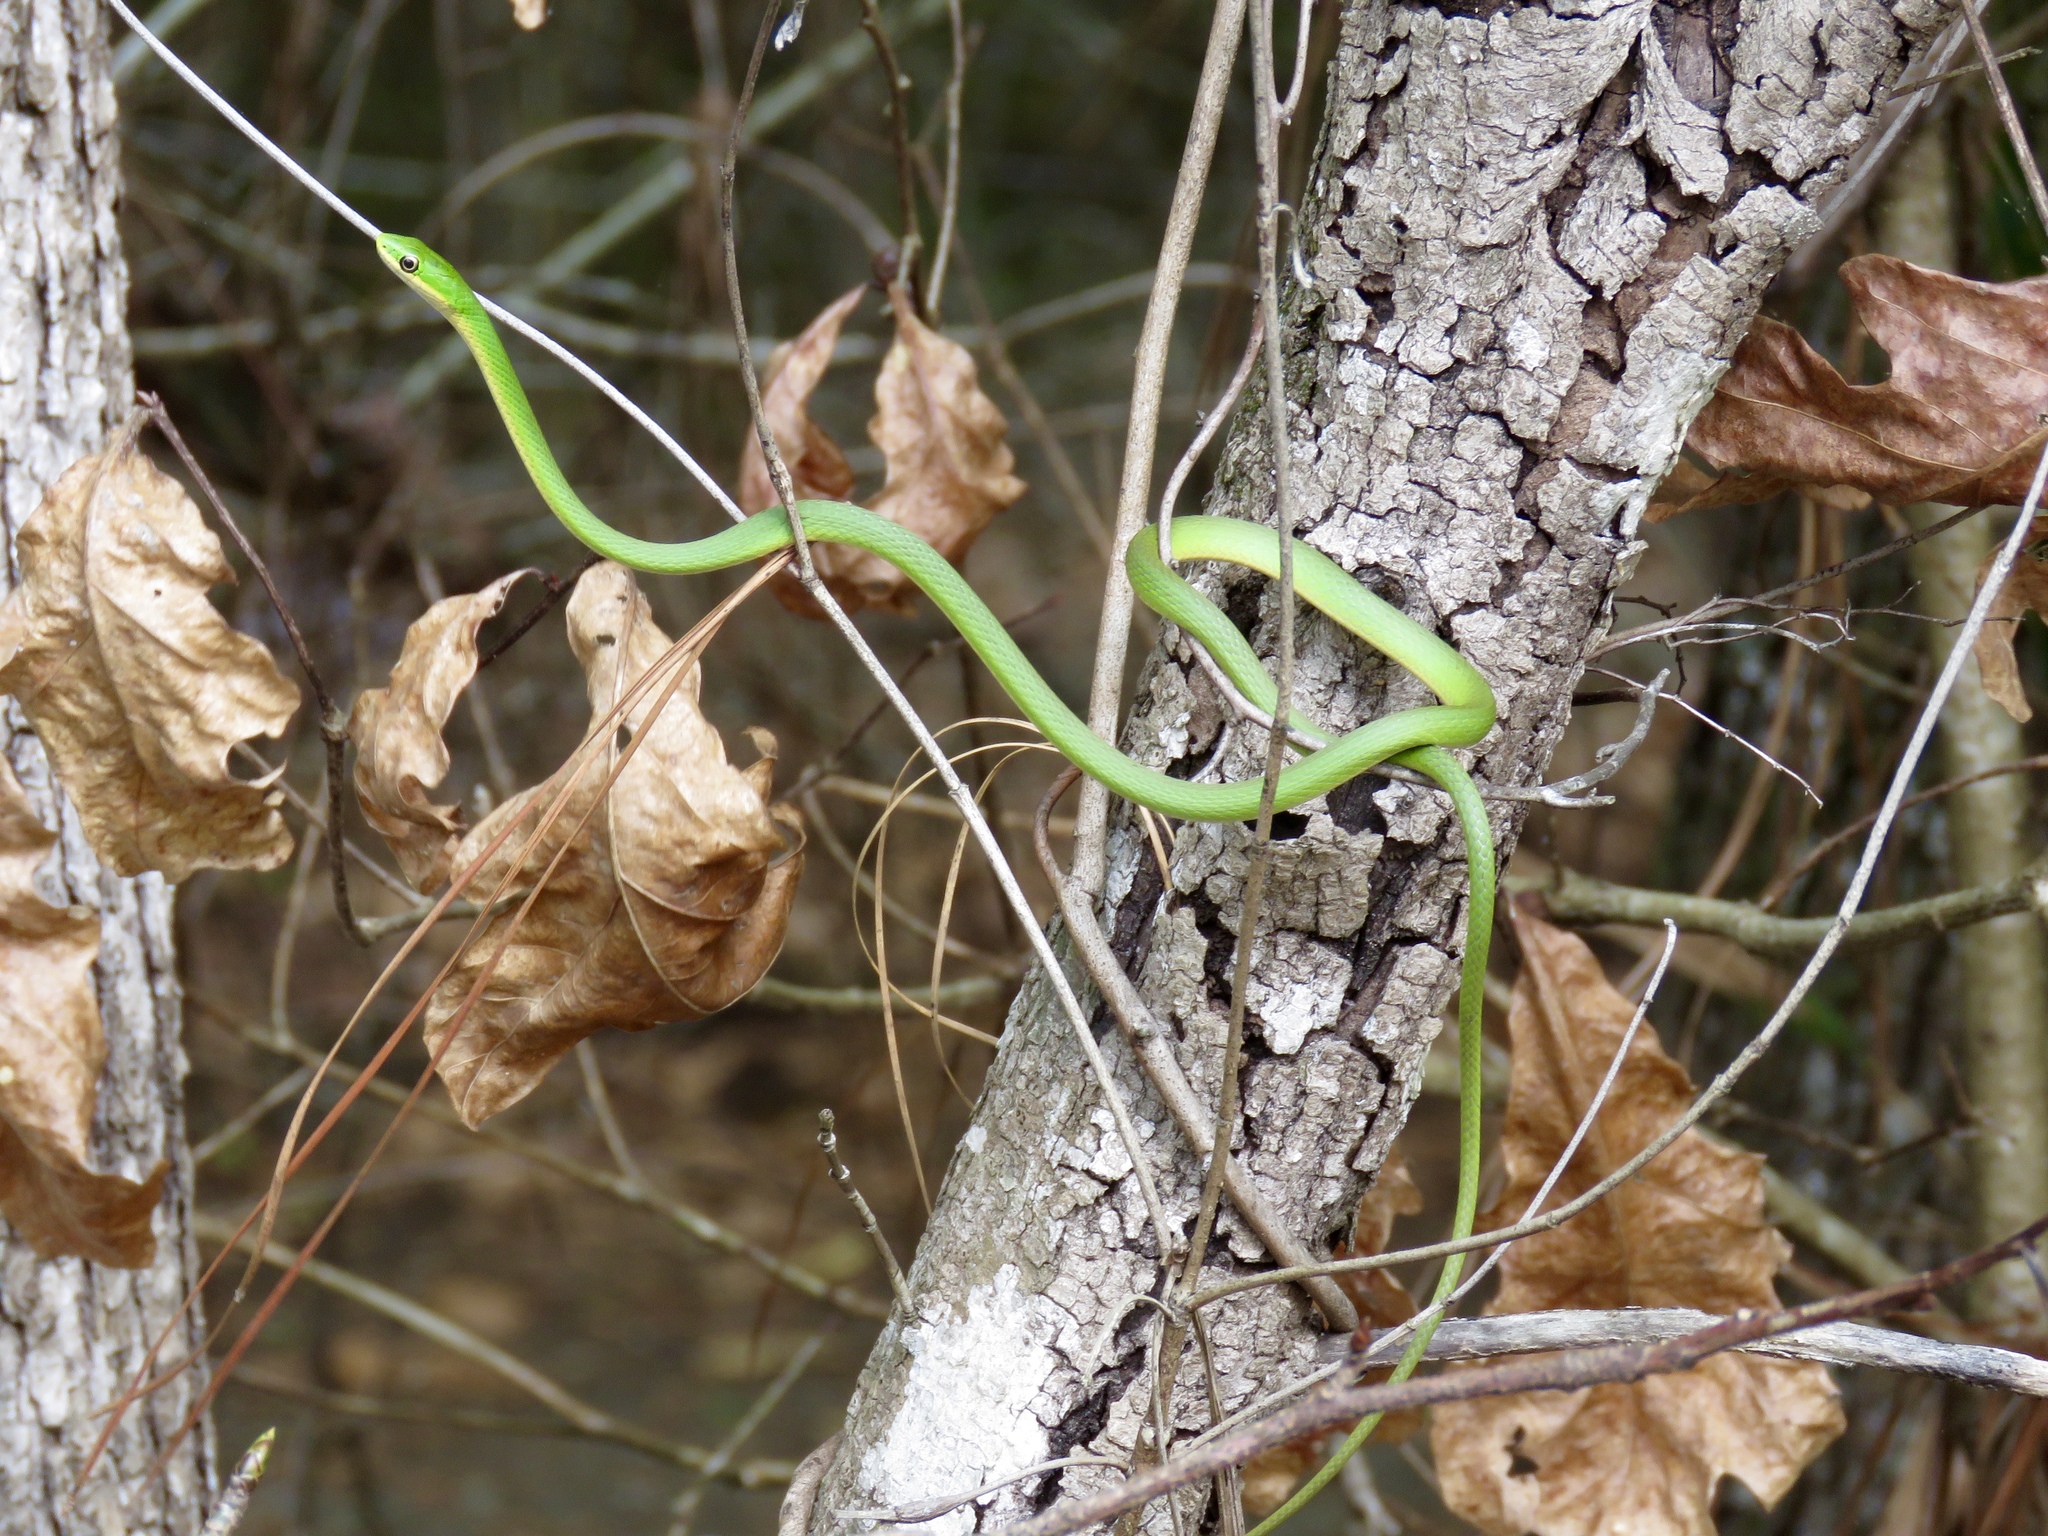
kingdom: Animalia
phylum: Chordata
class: Squamata
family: Colubridae
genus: Opheodrys
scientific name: Opheodrys aestivus
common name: Rough greensnake
